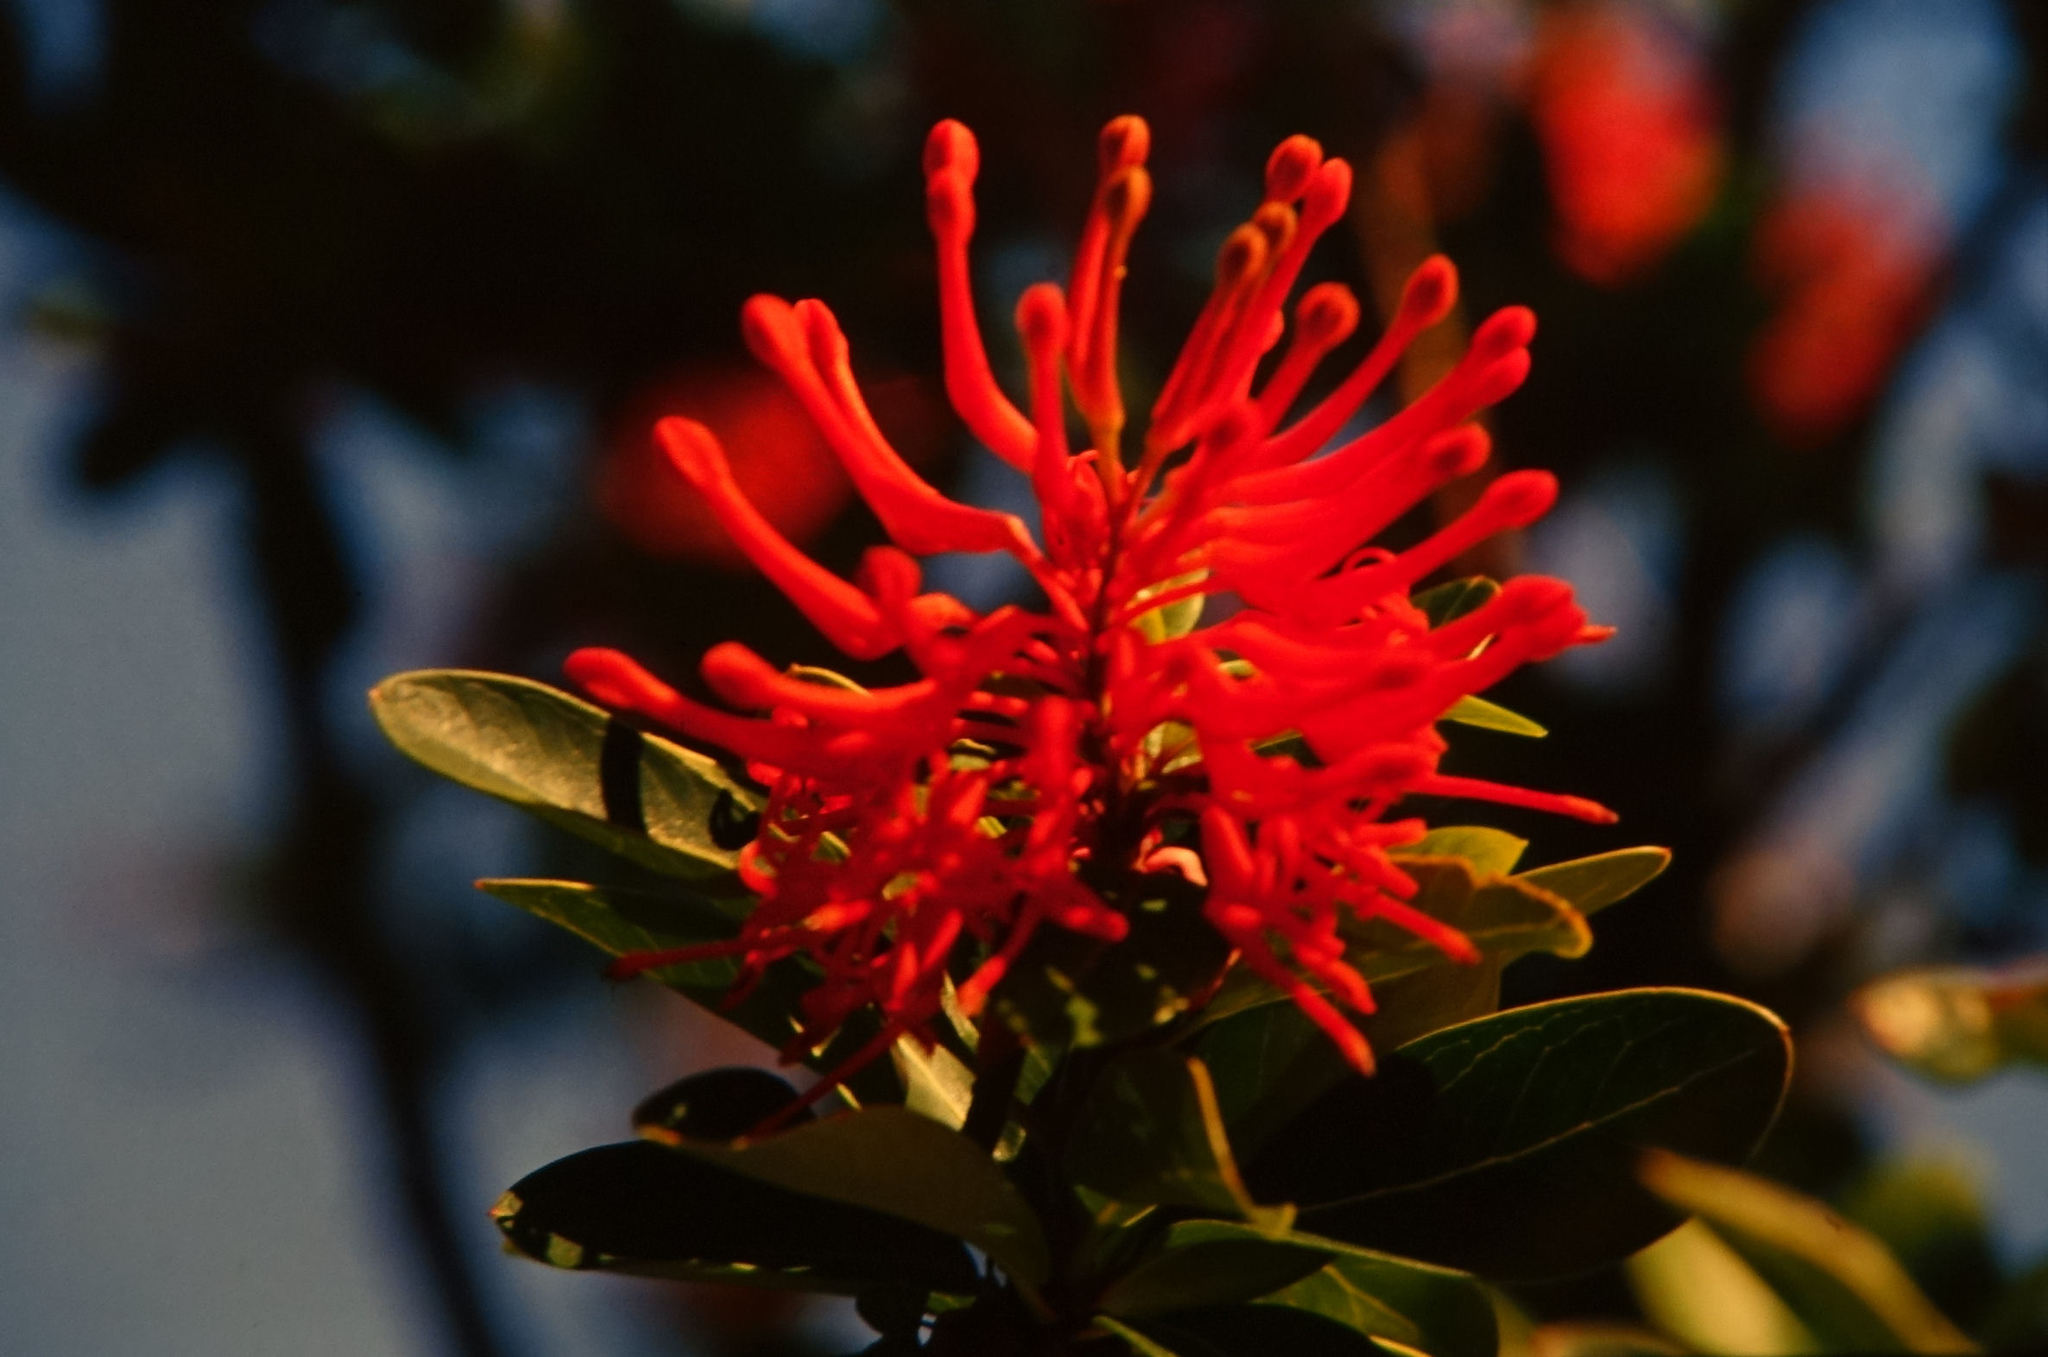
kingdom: Plantae
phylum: Tracheophyta
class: Magnoliopsida
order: Proteales
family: Proteaceae
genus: Embothrium
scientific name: Embothrium coccineum
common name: Chilean firebush
